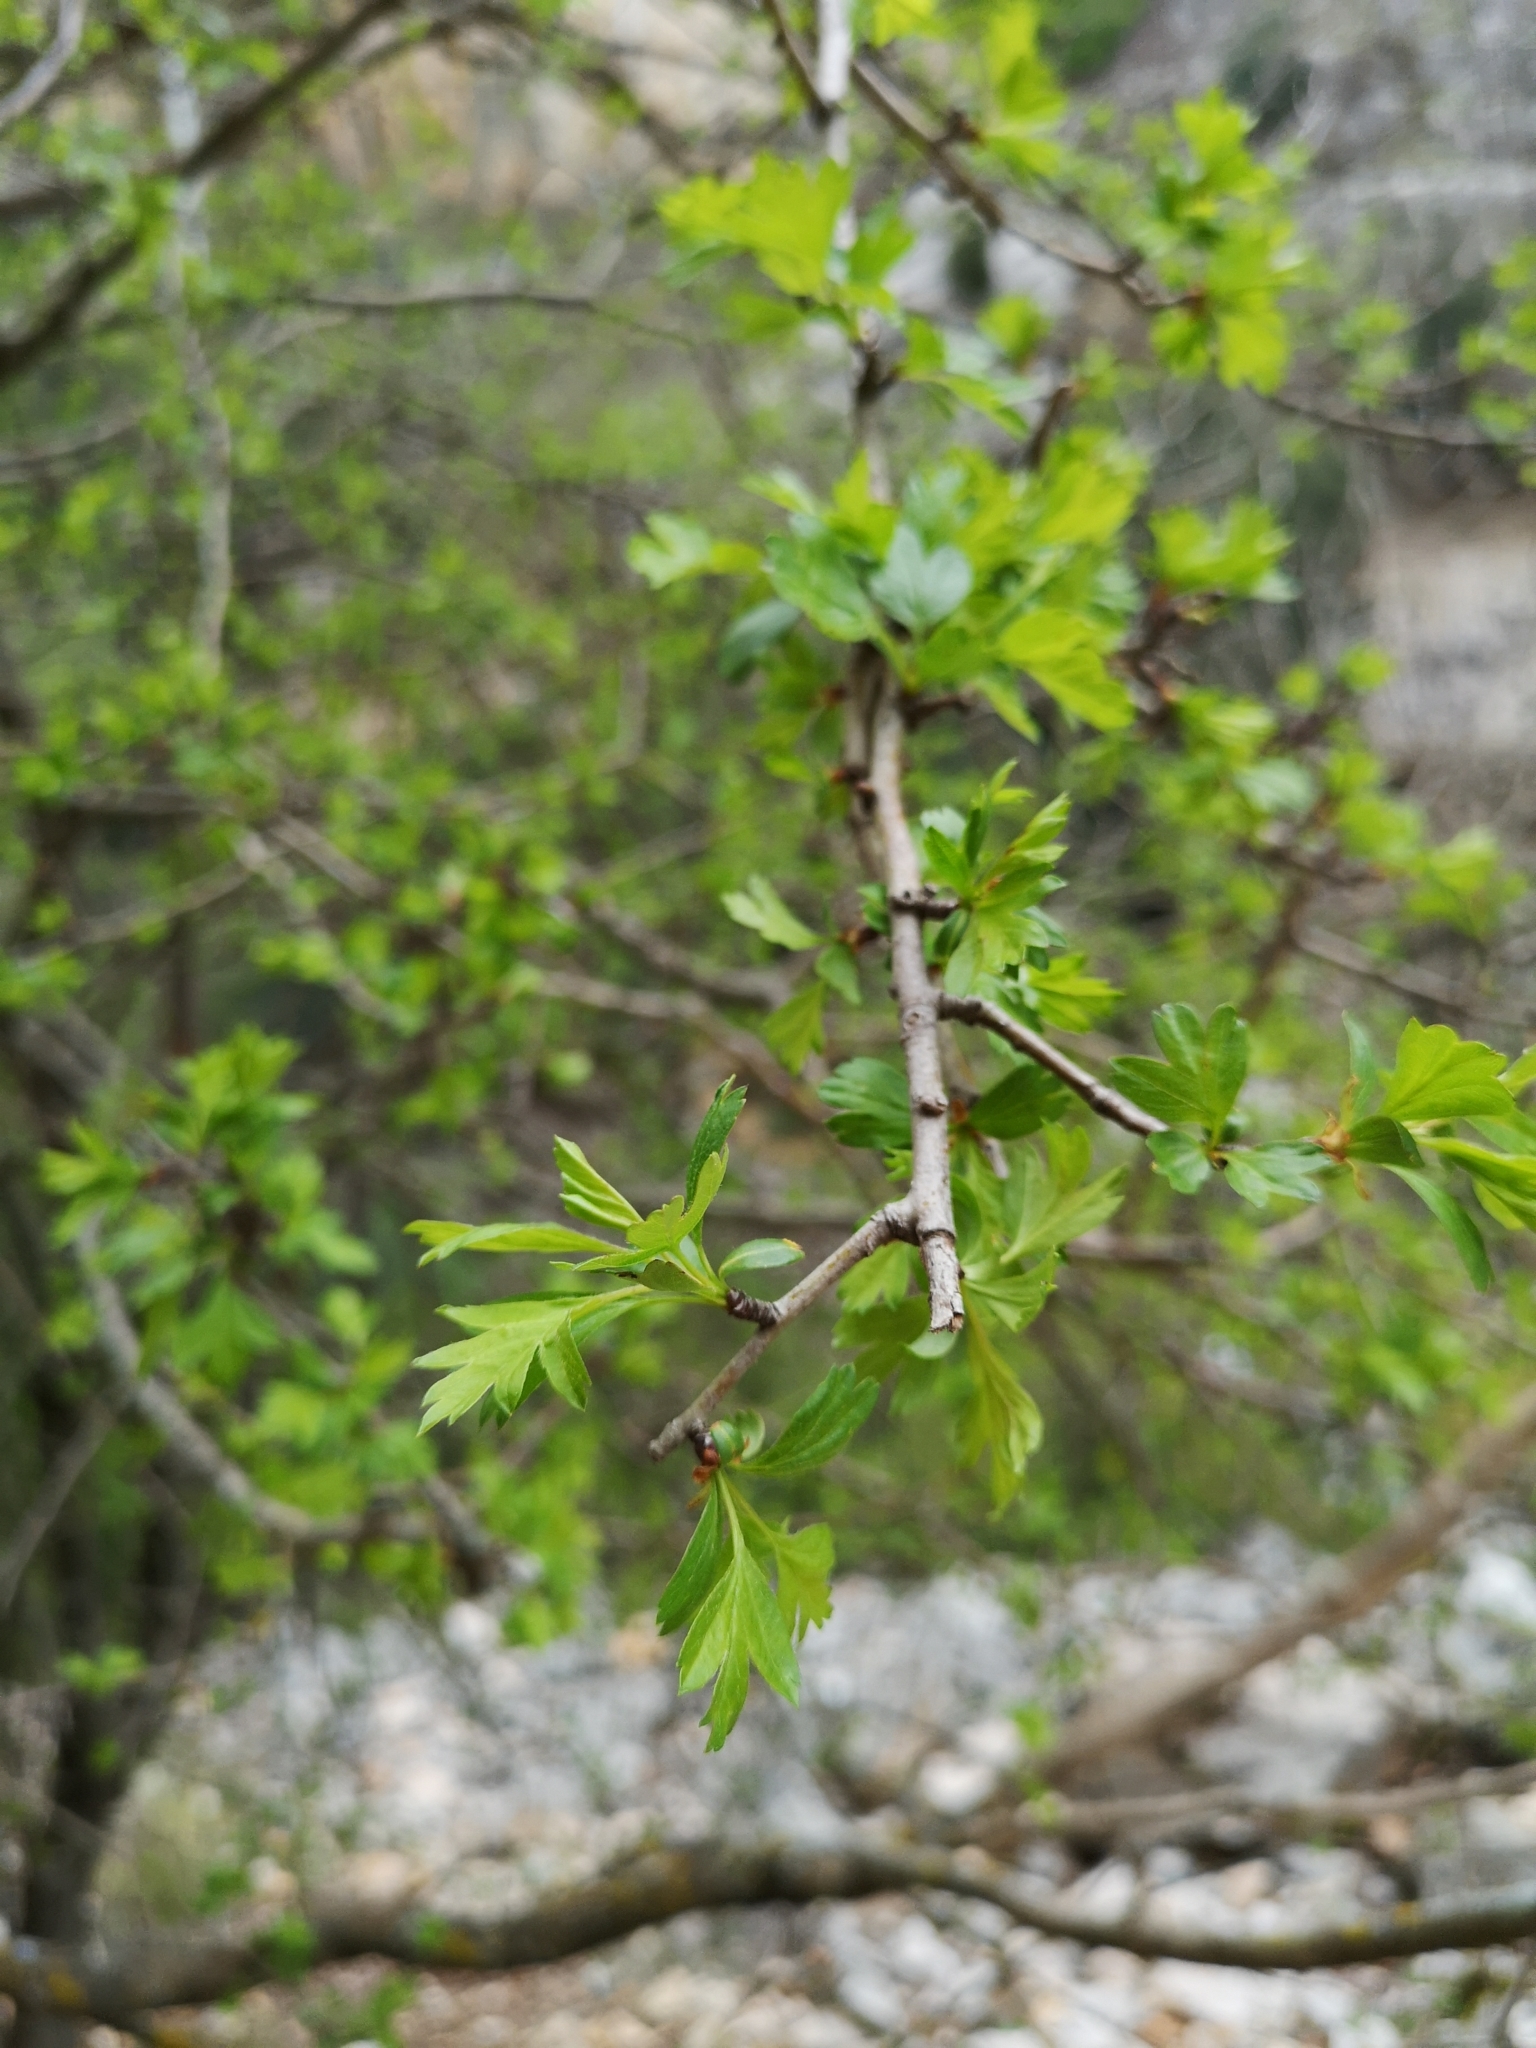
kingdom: Plantae
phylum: Tracheophyta
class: Magnoliopsida
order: Rosales
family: Rosaceae
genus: Crataegus
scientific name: Crataegus monogyna
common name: Hawthorn
